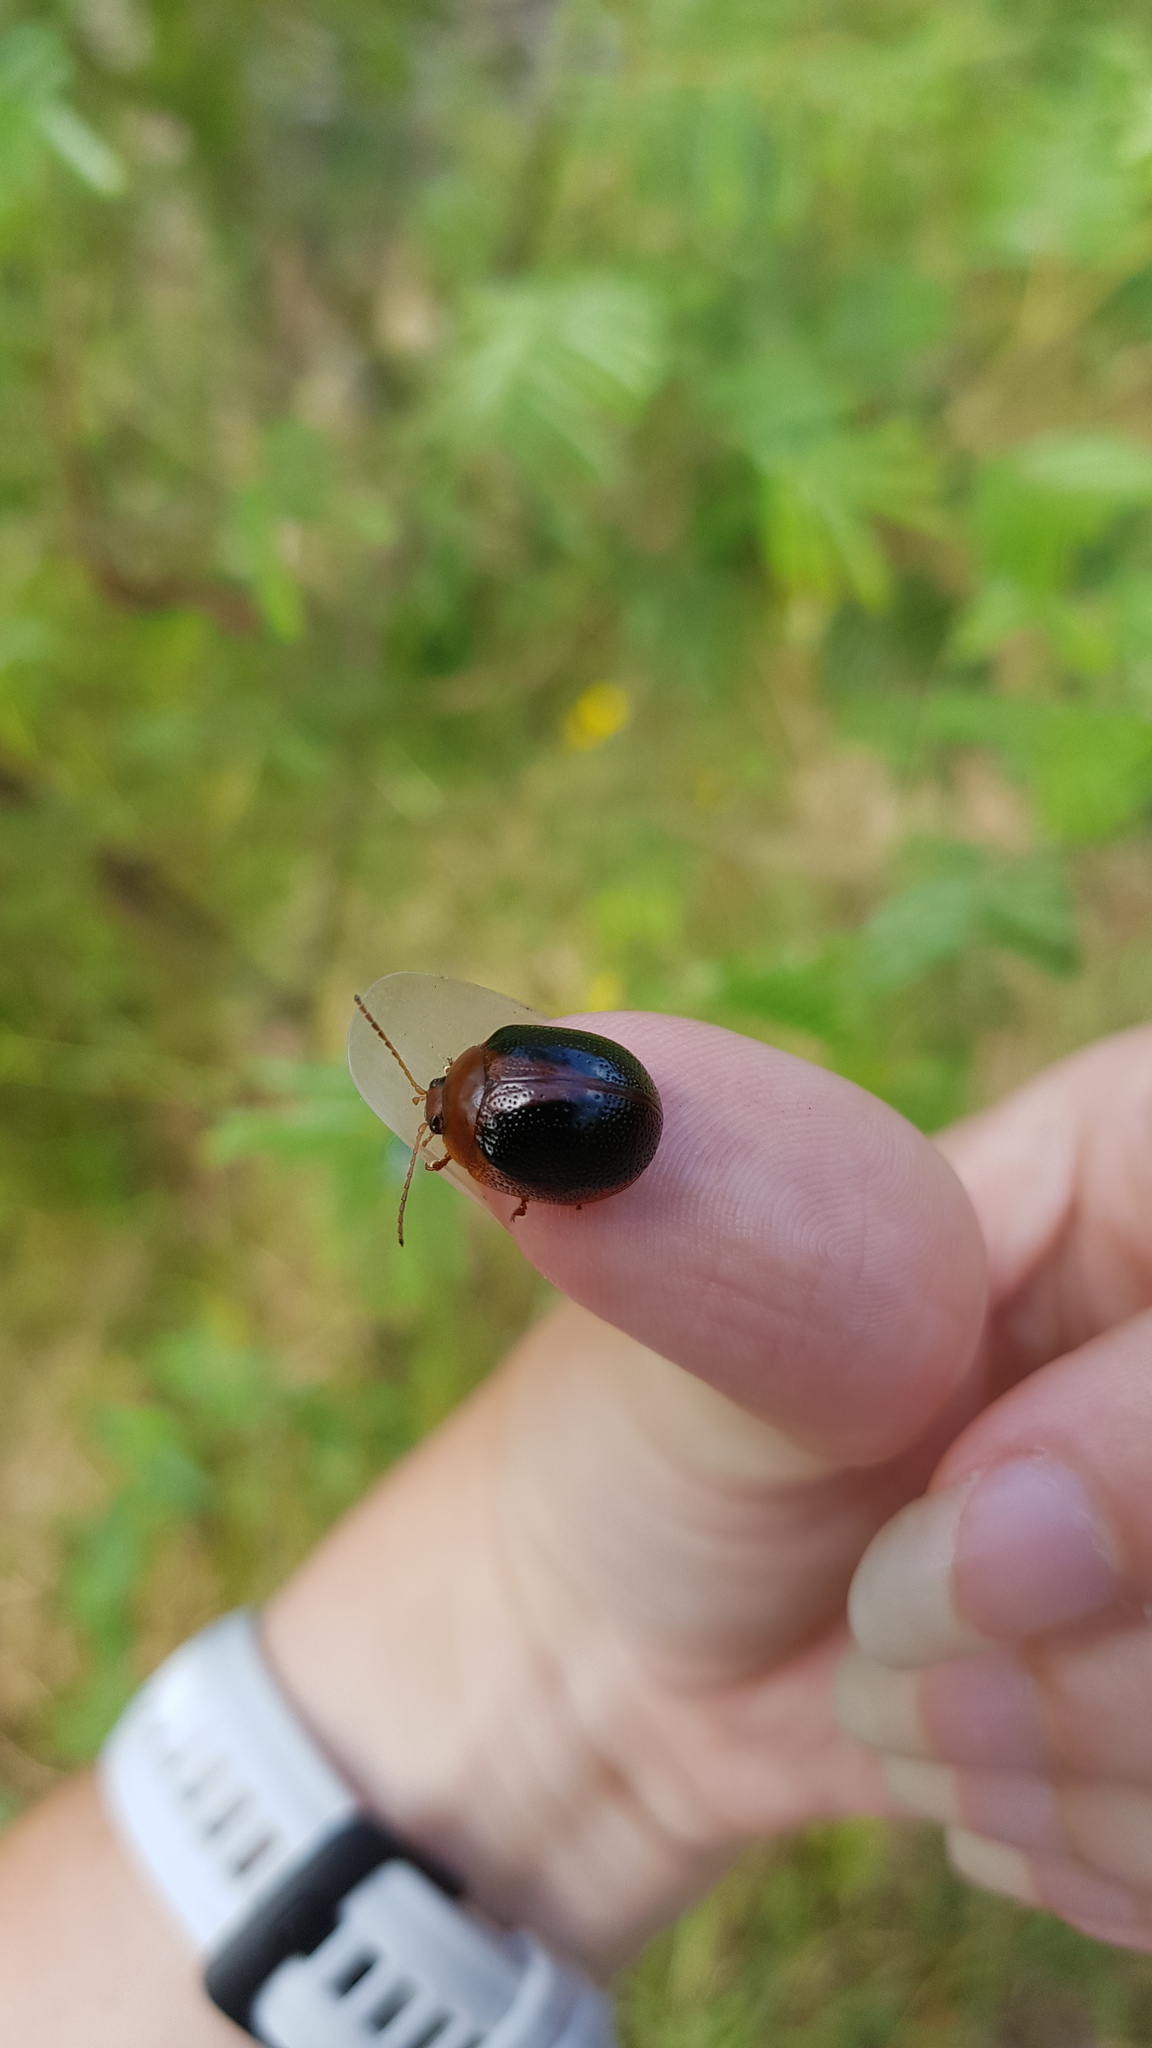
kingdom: Animalia
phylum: Arthropoda
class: Insecta
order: Coleoptera
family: Chrysomelidae
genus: Dicranosterna
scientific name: Dicranosterna
